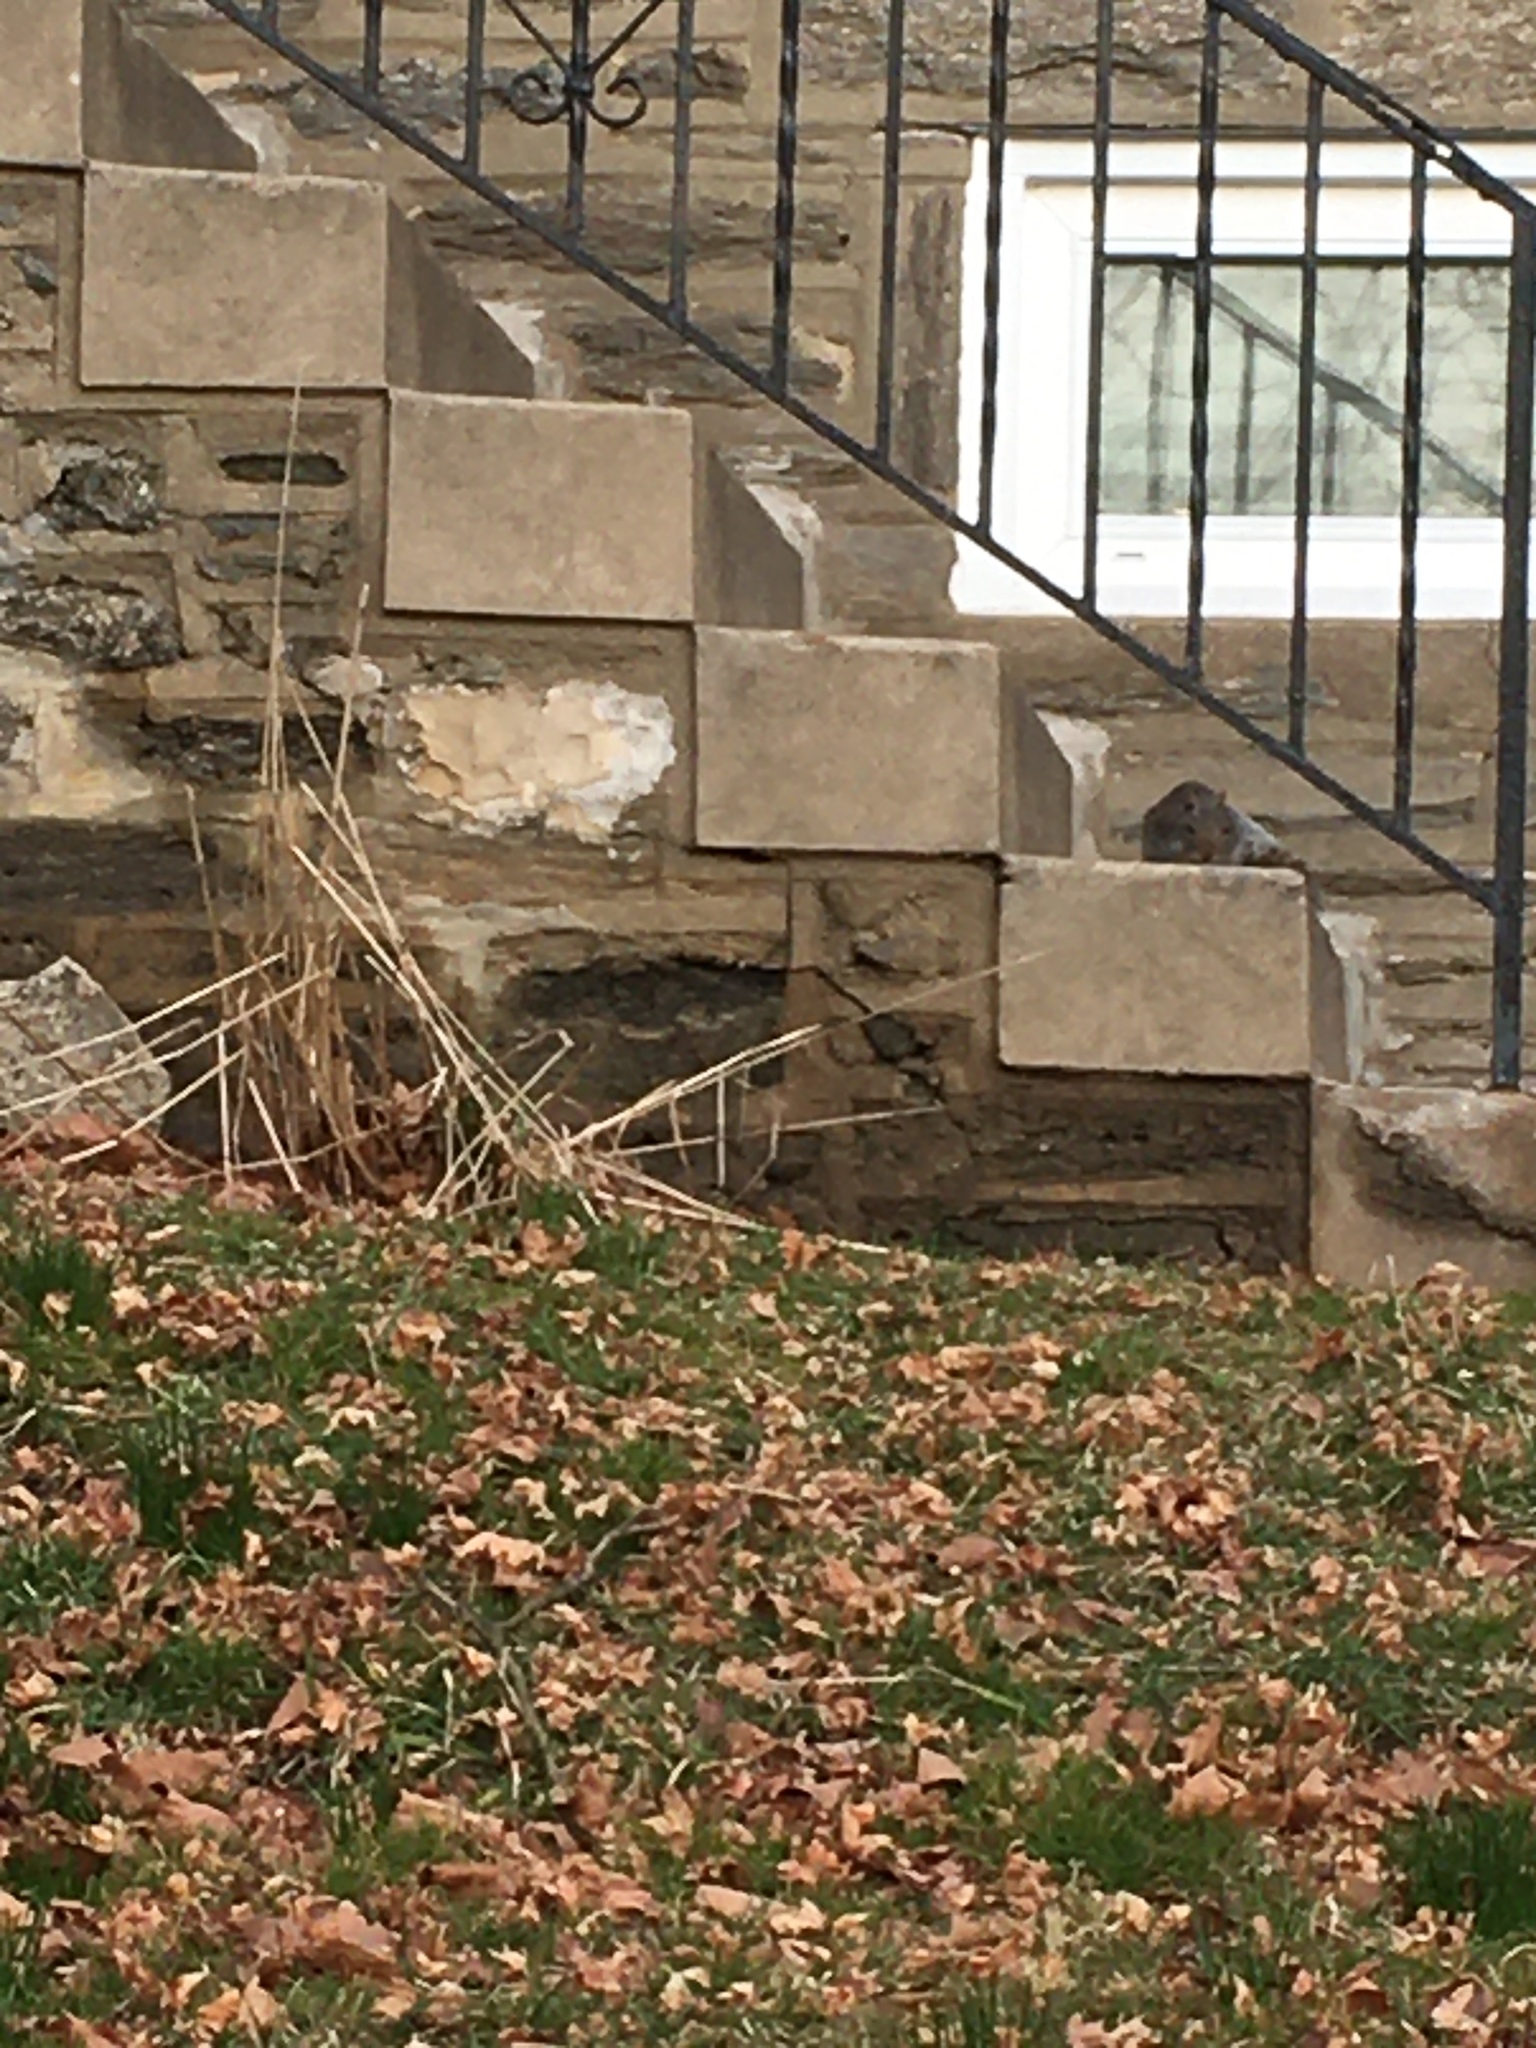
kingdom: Animalia
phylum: Chordata
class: Mammalia
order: Rodentia
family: Sciuridae
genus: Sciurus
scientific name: Sciurus carolinensis
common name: Eastern gray squirrel
